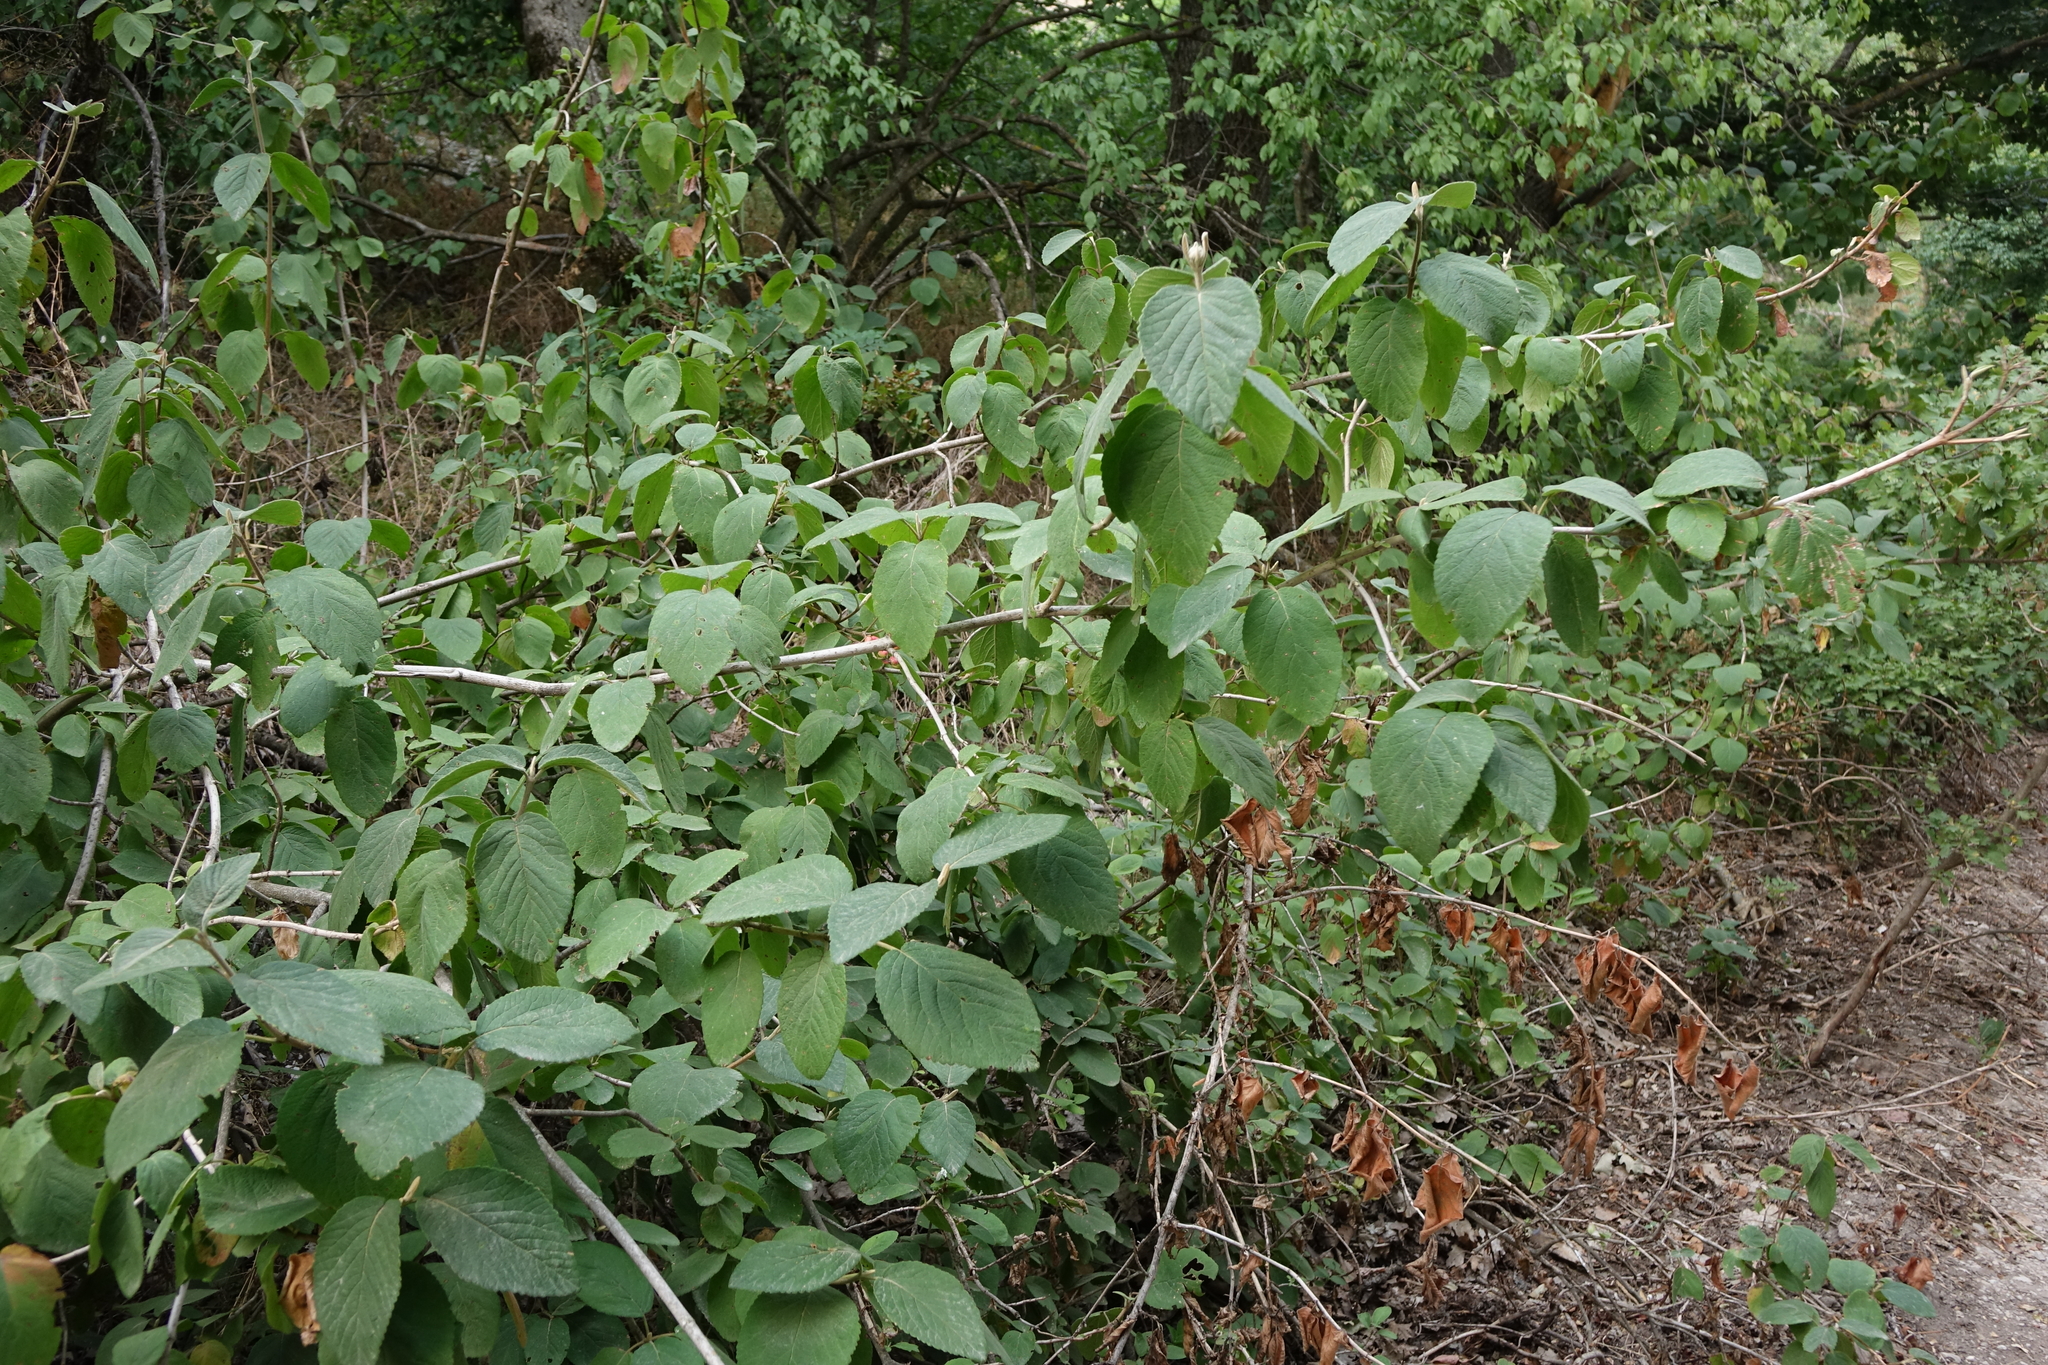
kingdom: Plantae
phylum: Tracheophyta
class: Magnoliopsida
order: Dipsacales
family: Viburnaceae
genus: Viburnum
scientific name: Viburnum lantana
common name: Wayfaring tree
